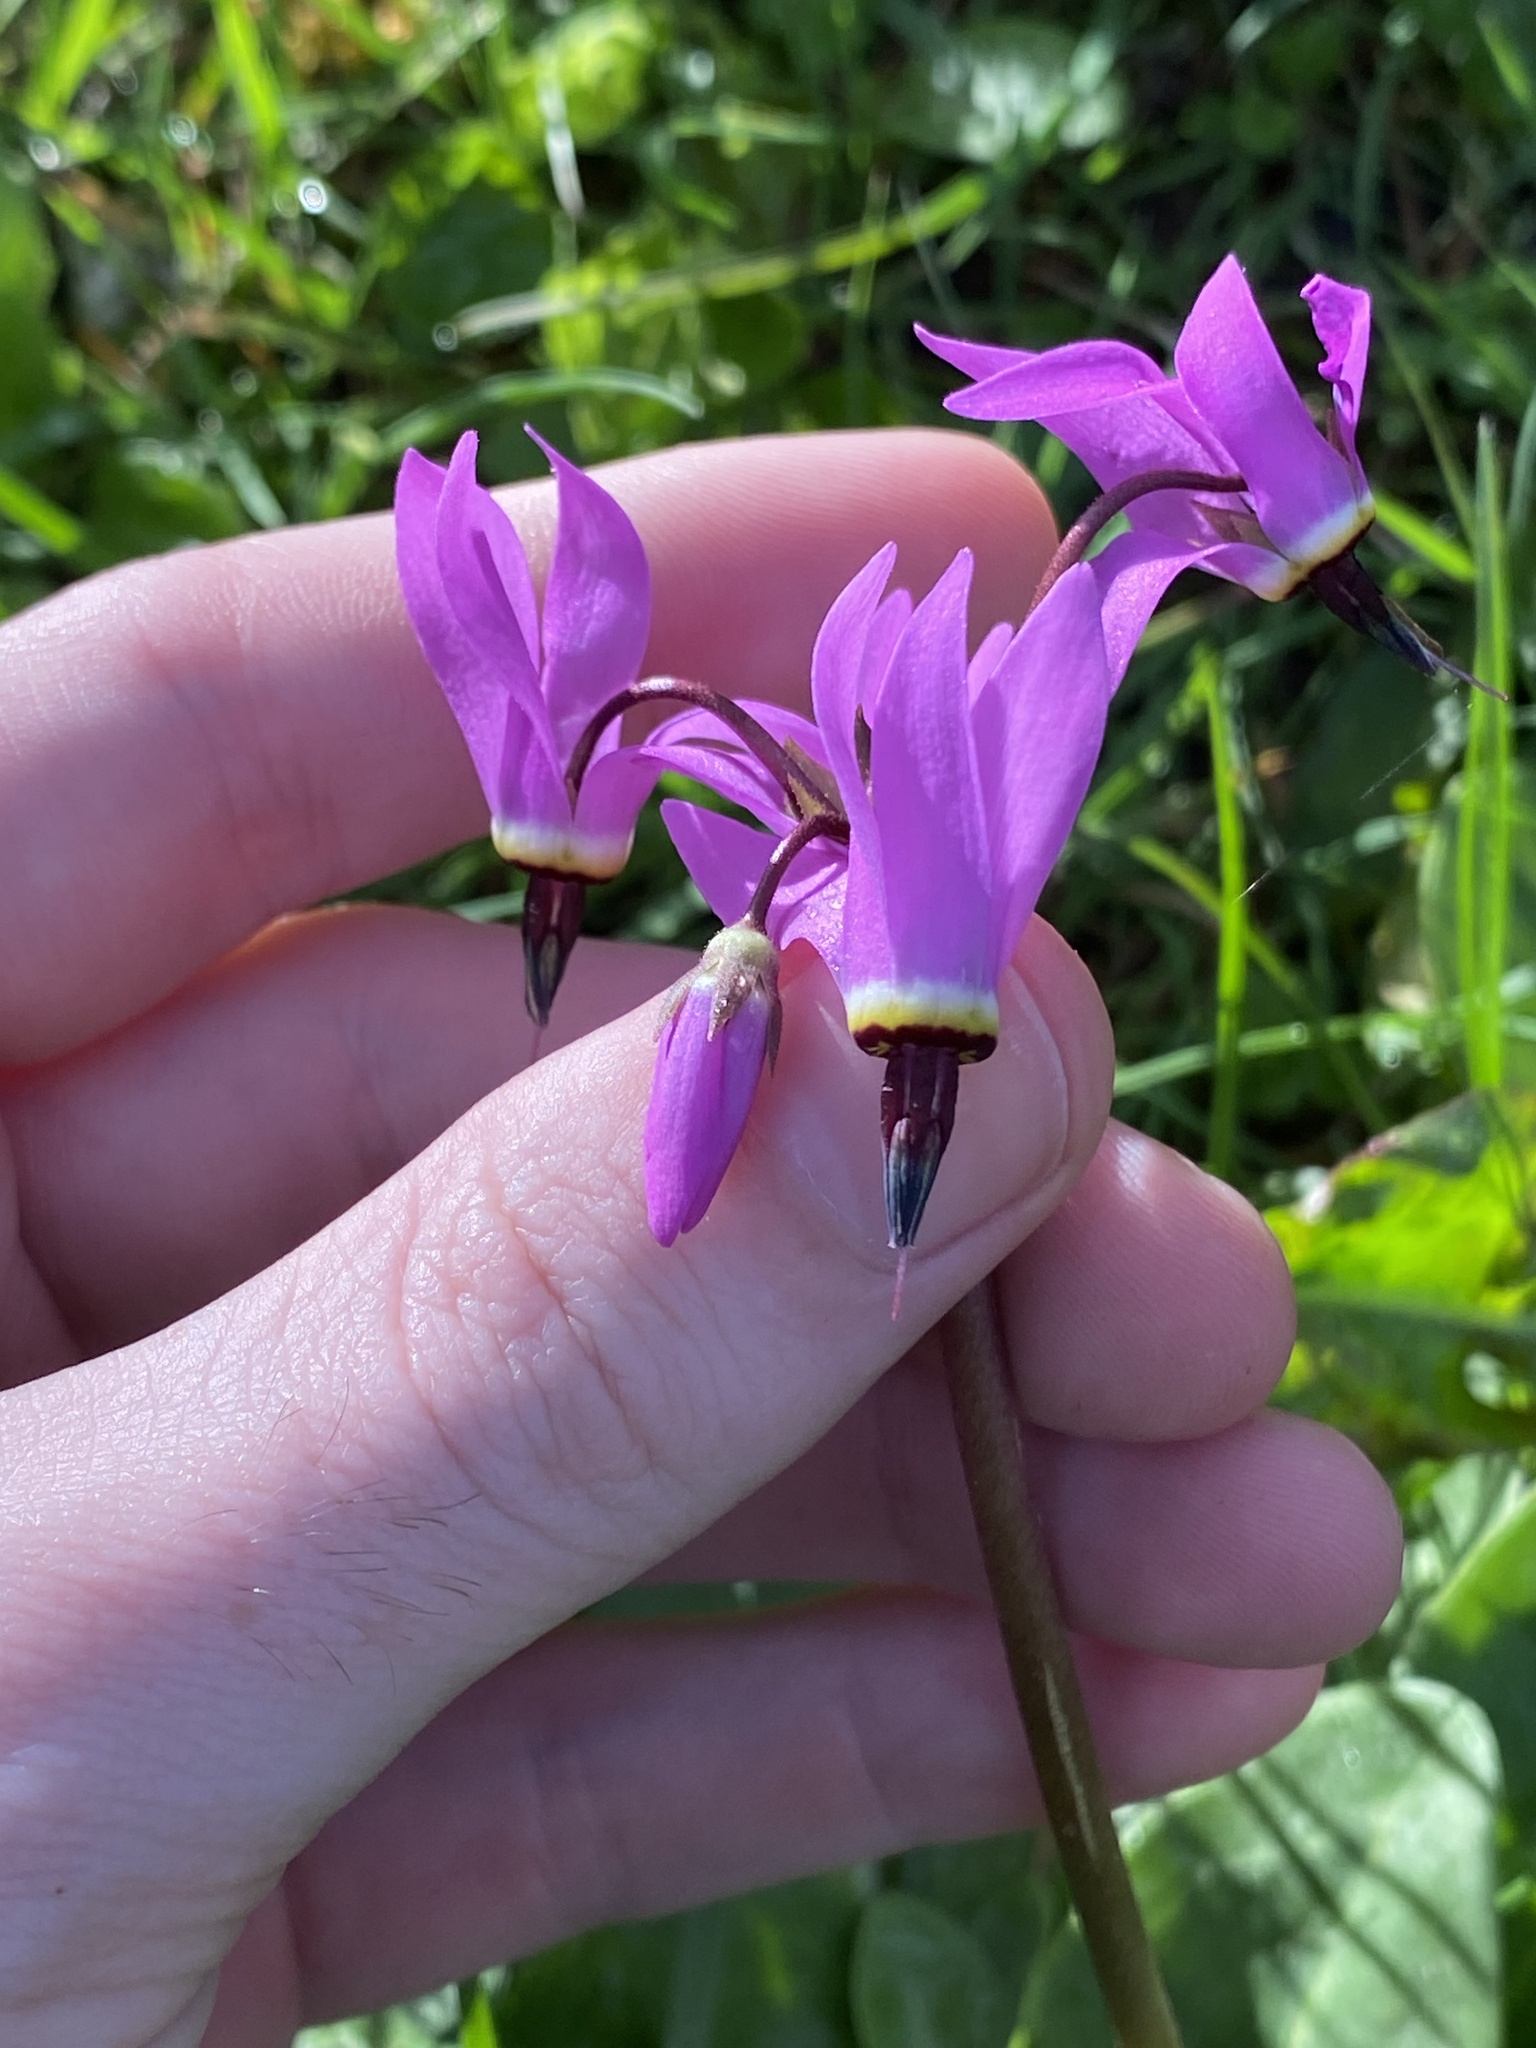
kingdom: Plantae
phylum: Tracheophyta
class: Magnoliopsida
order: Ericales
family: Primulaceae
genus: Dodecatheon
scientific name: Dodecatheon hendersonii
